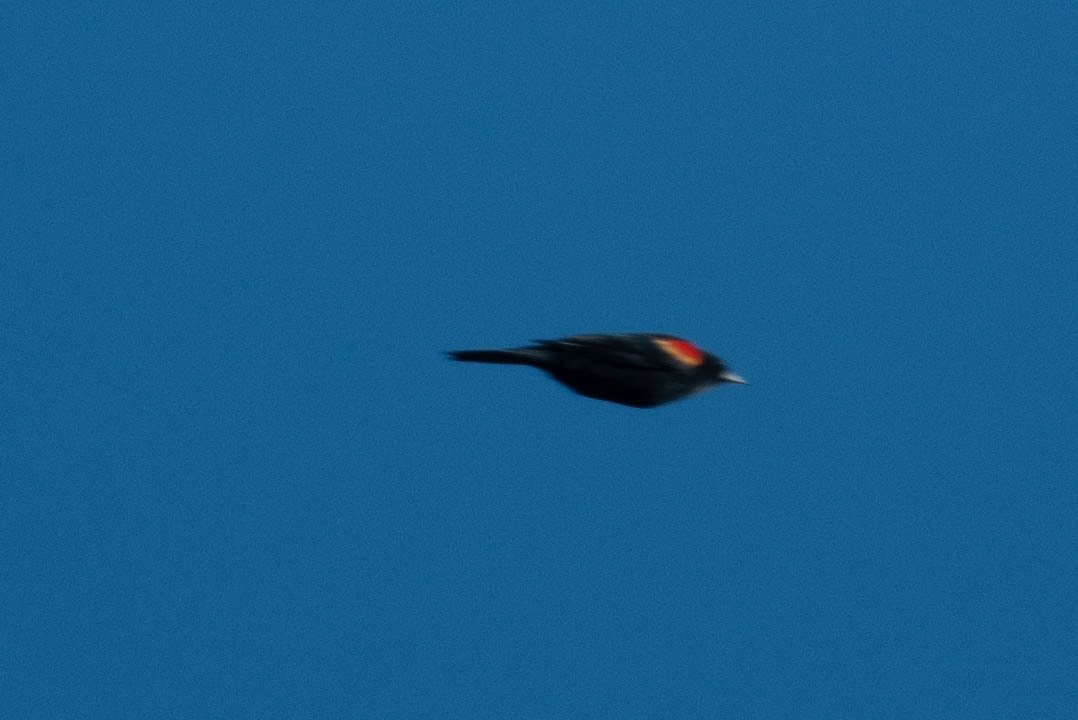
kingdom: Animalia
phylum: Chordata
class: Aves
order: Passeriformes
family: Icteridae
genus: Agelaius
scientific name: Agelaius phoeniceus
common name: Red-winged blackbird
